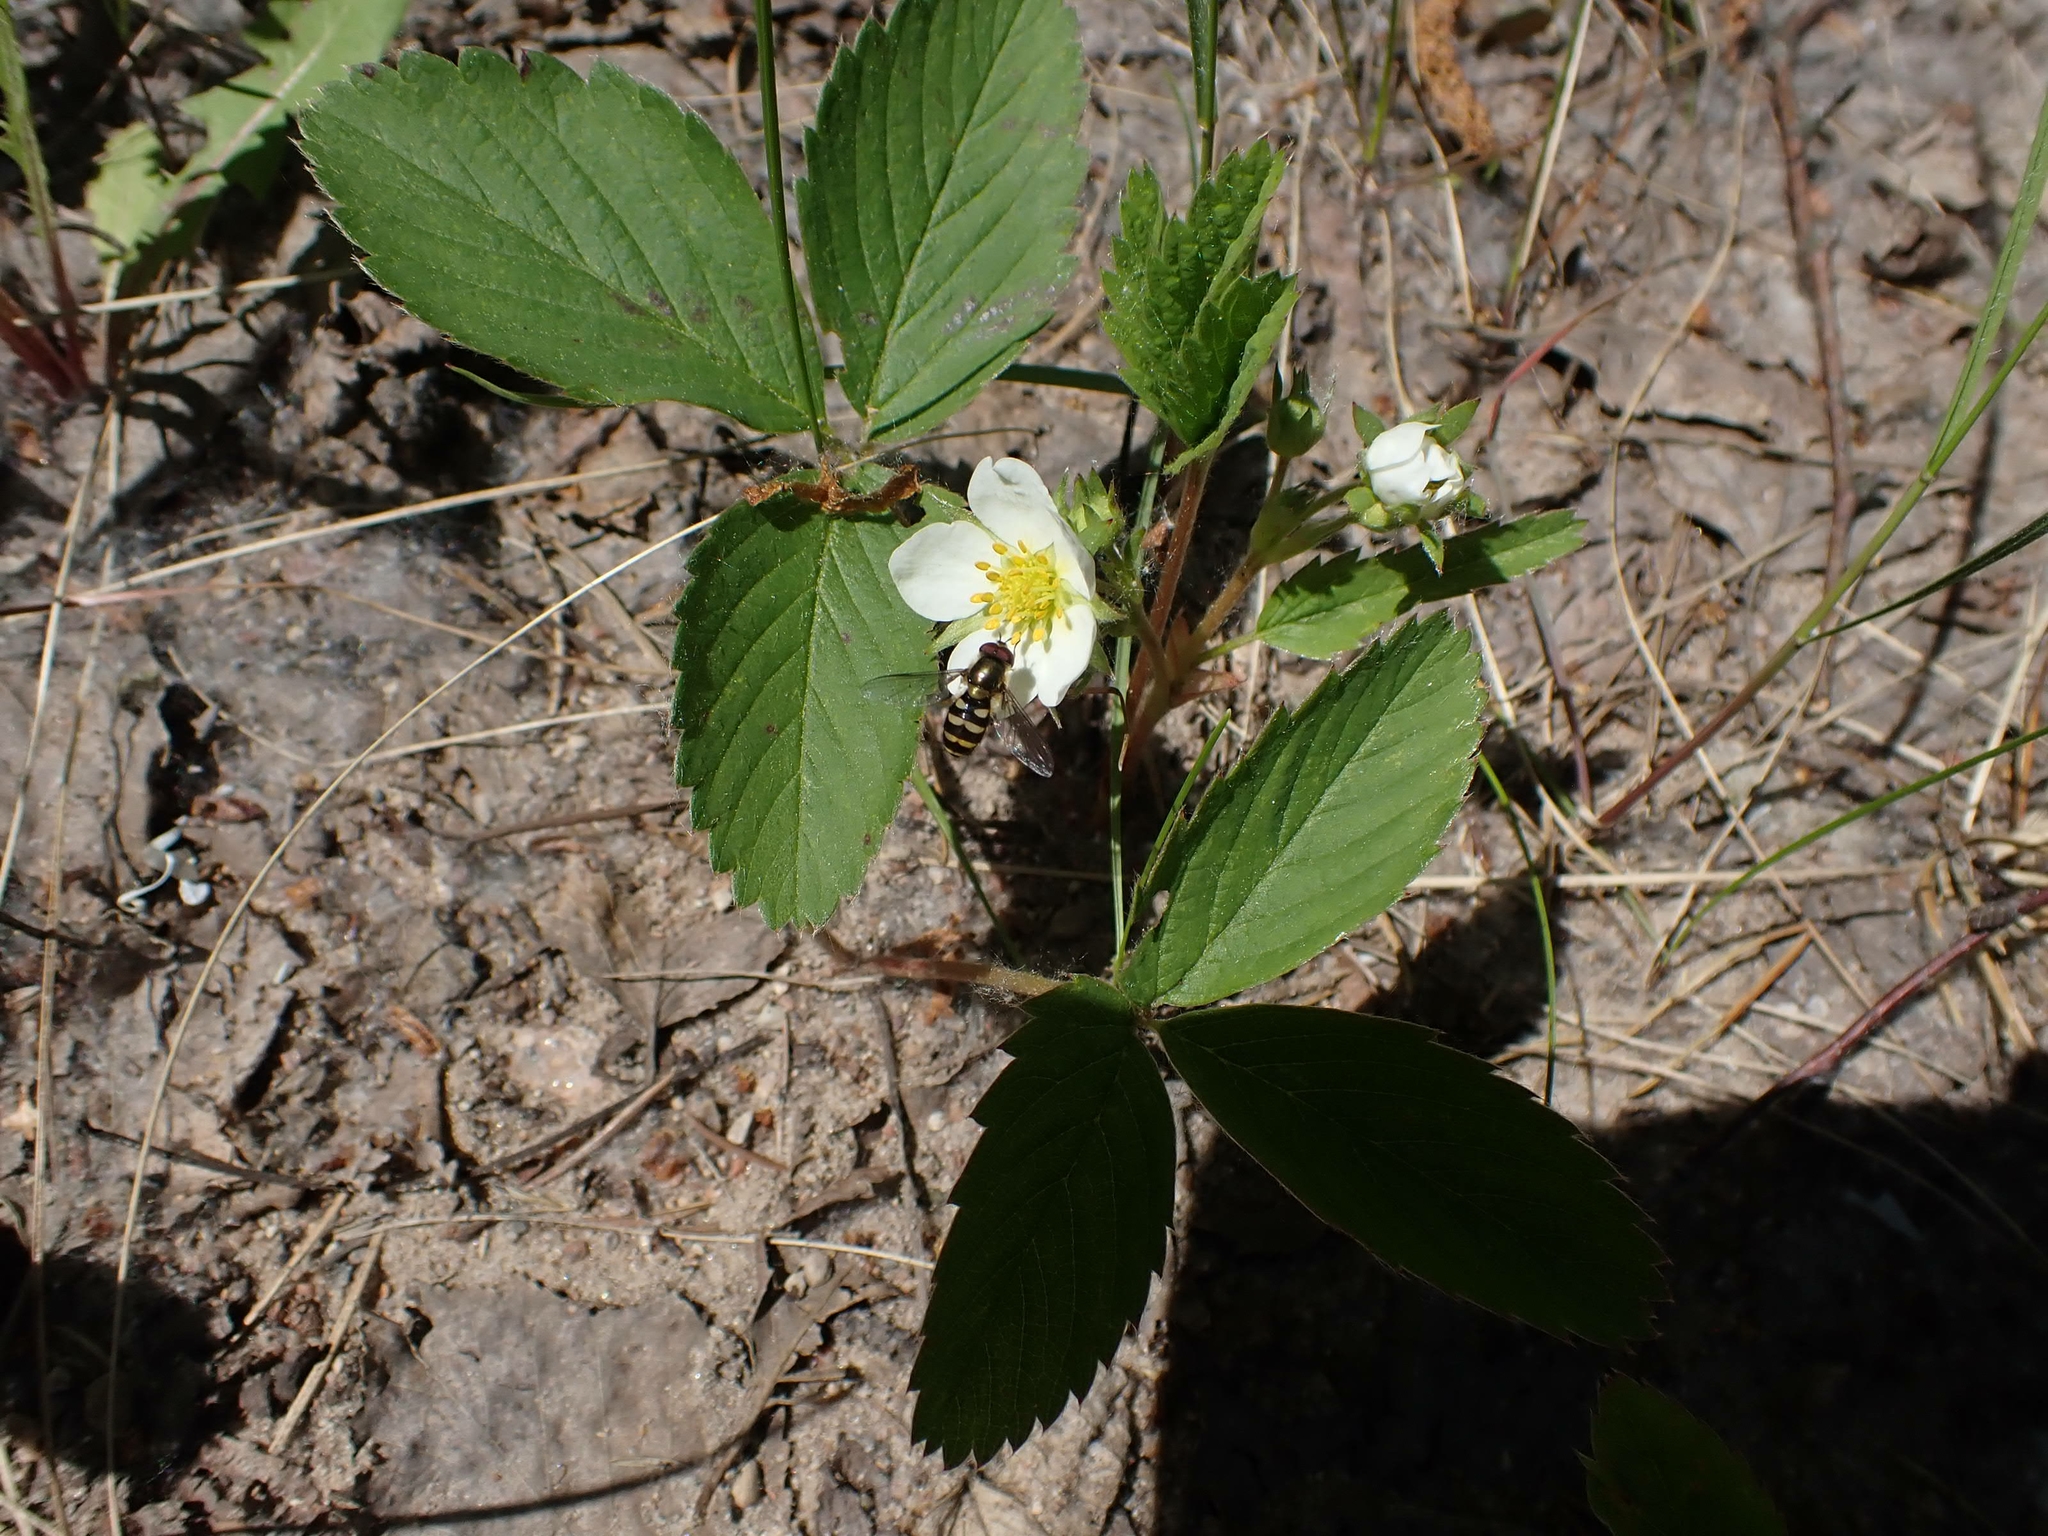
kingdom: Plantae
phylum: Tracheophyta
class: Magnoliopsida
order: Rosales
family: Rosaceae
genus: Fragaria
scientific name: Fragaria virginiana
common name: Thickleaved wild strawberry
